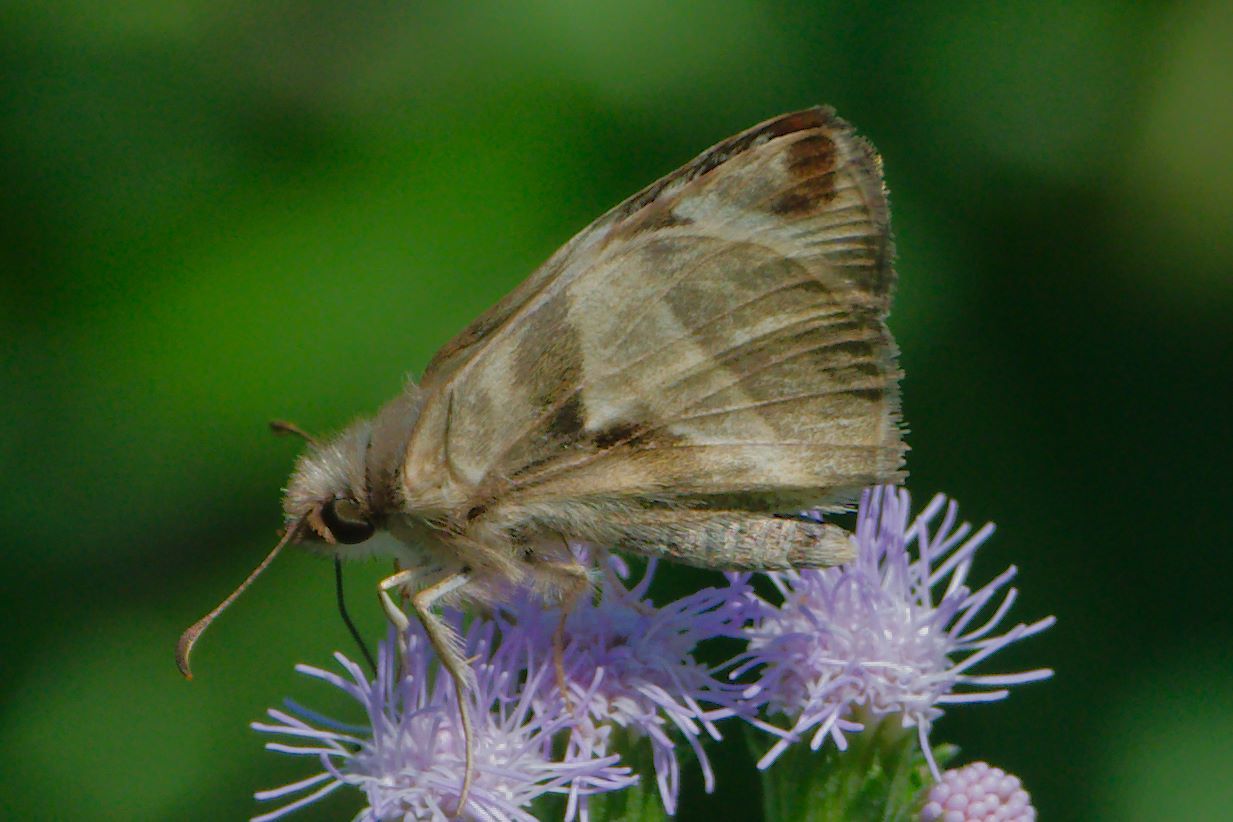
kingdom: Animalia
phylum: Arthropoda
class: Insecta
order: Lepidoptera
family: Hesperiidae
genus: Heliopetes
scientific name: Heliopetes laviana
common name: Laviana white-skipper
